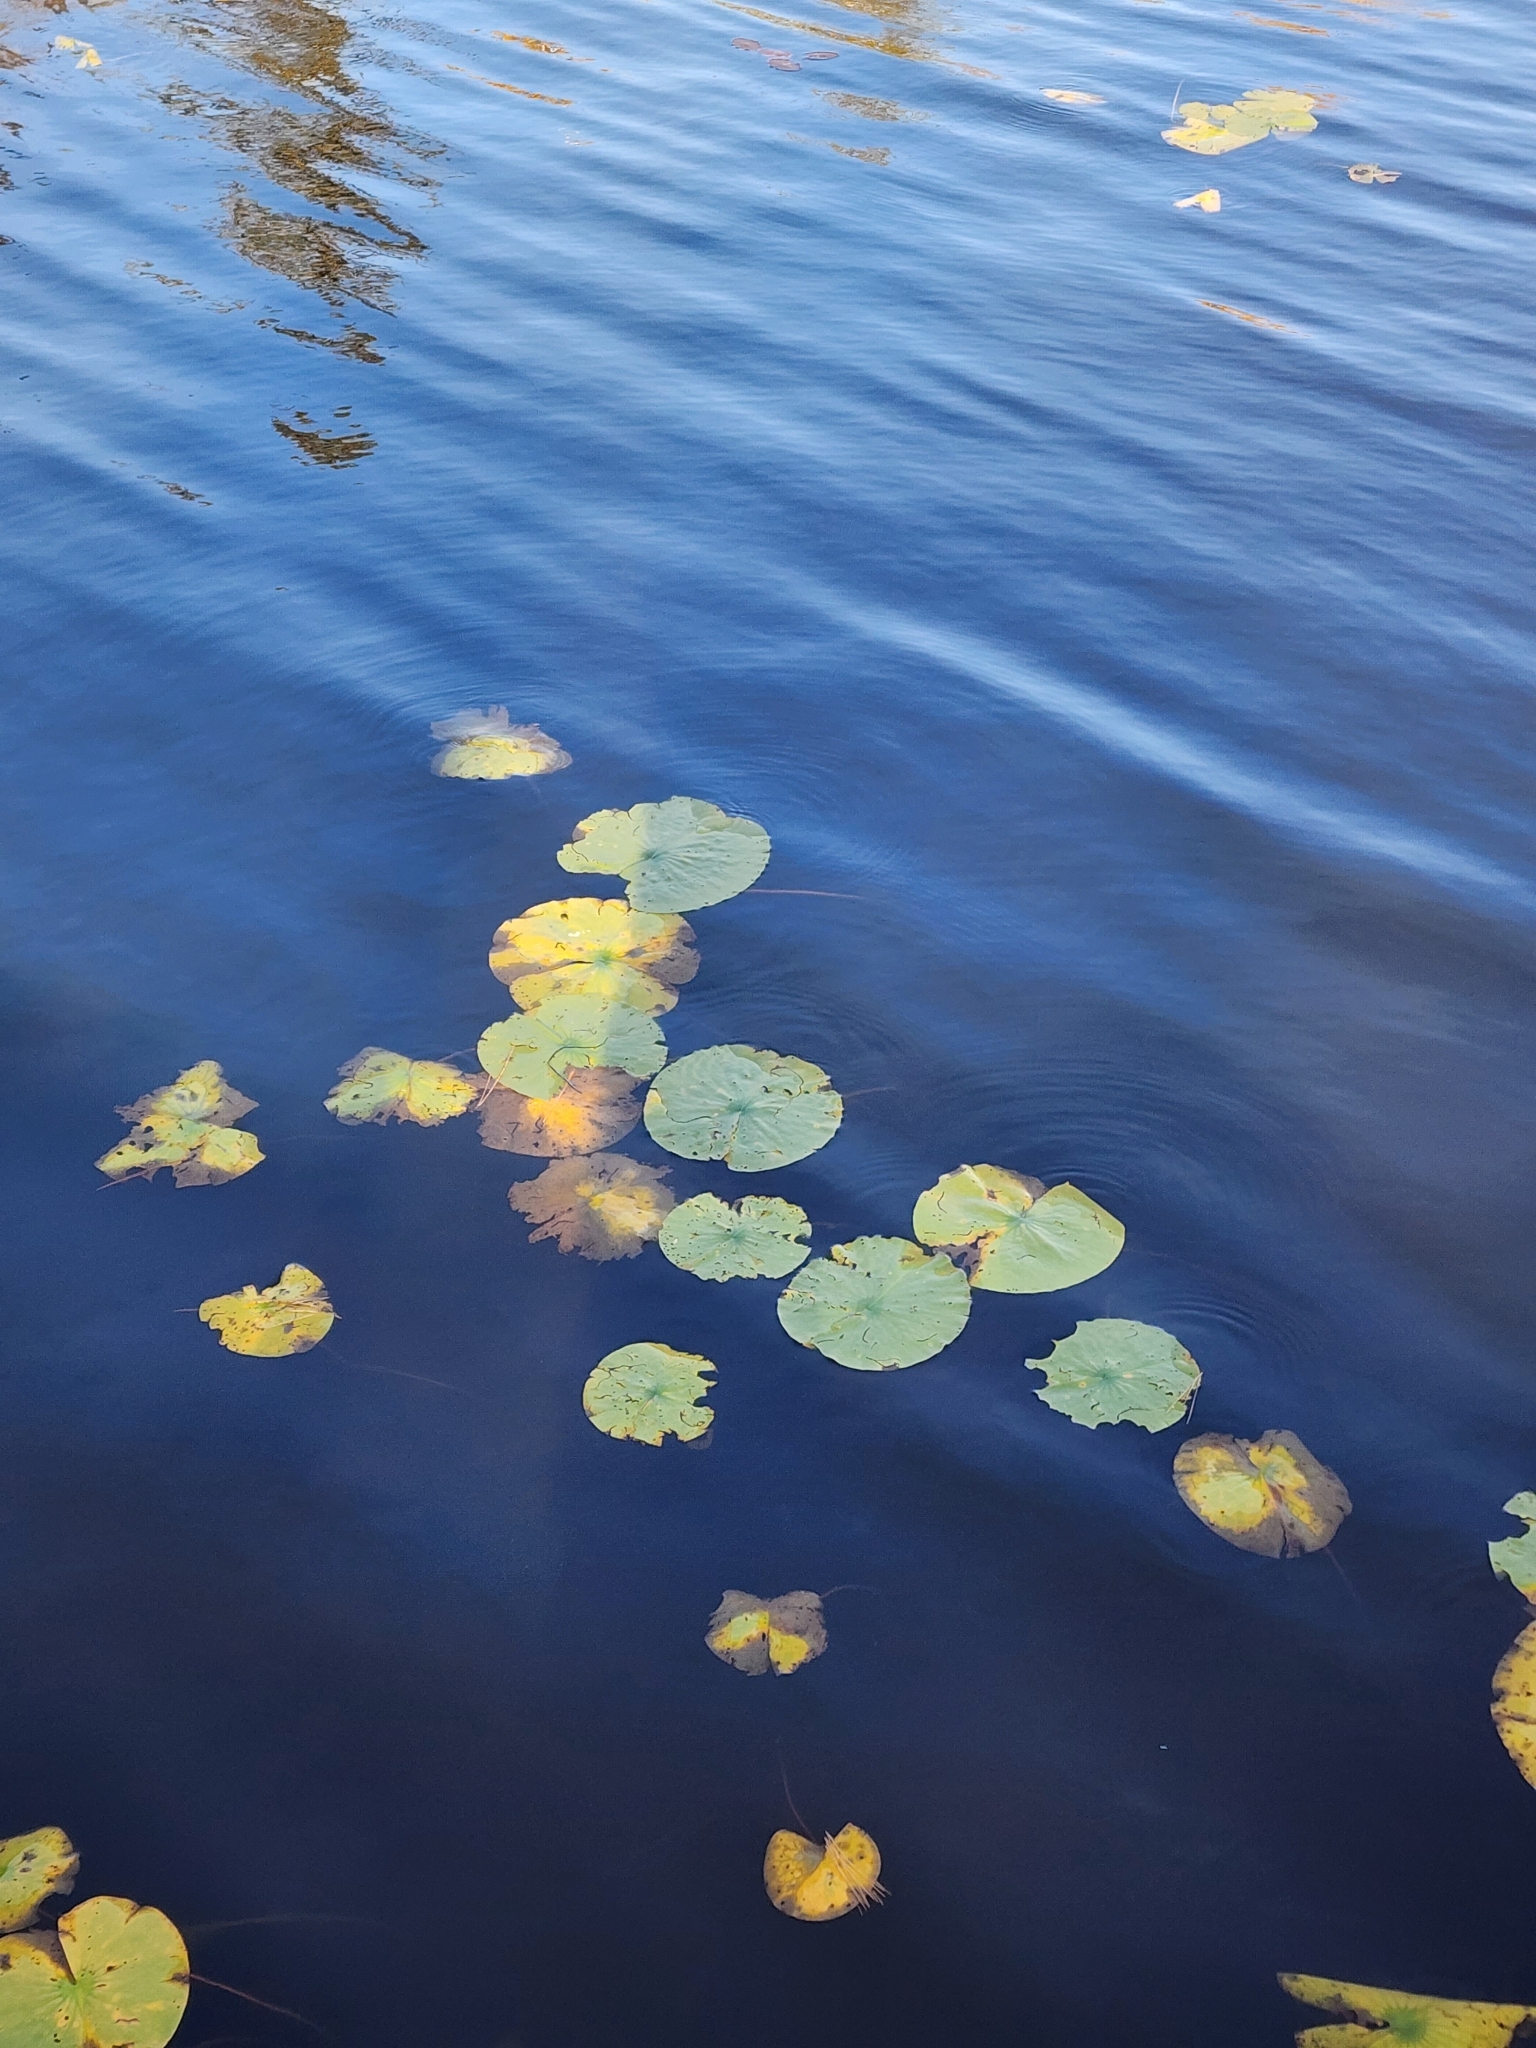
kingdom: Plantae
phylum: Tracheophyta
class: Magnoliopsida
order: Nymphaeales
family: Nymphaeaceae
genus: Nymphaea
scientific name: Nymphaea odorata
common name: Fragrant water-lily
